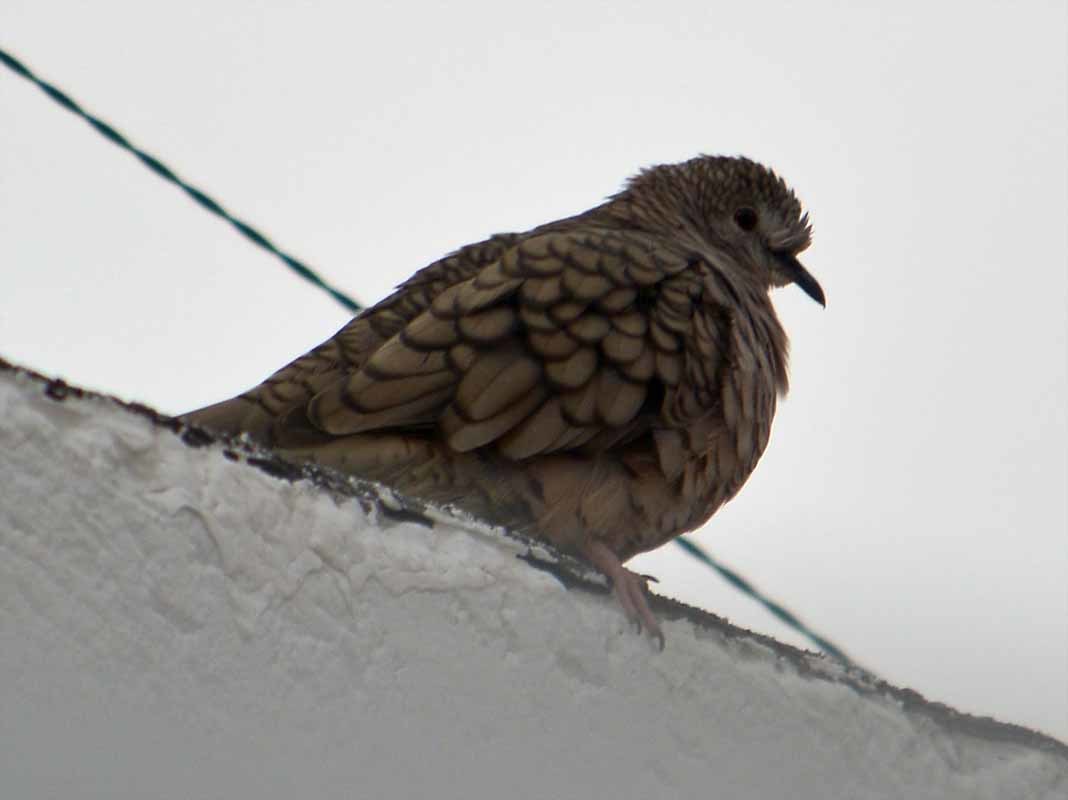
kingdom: Animalia
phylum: Chordata
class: Aves
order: Columbiformes
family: Columbidae
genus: Columbina
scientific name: Columbina inca
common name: Inca dove
